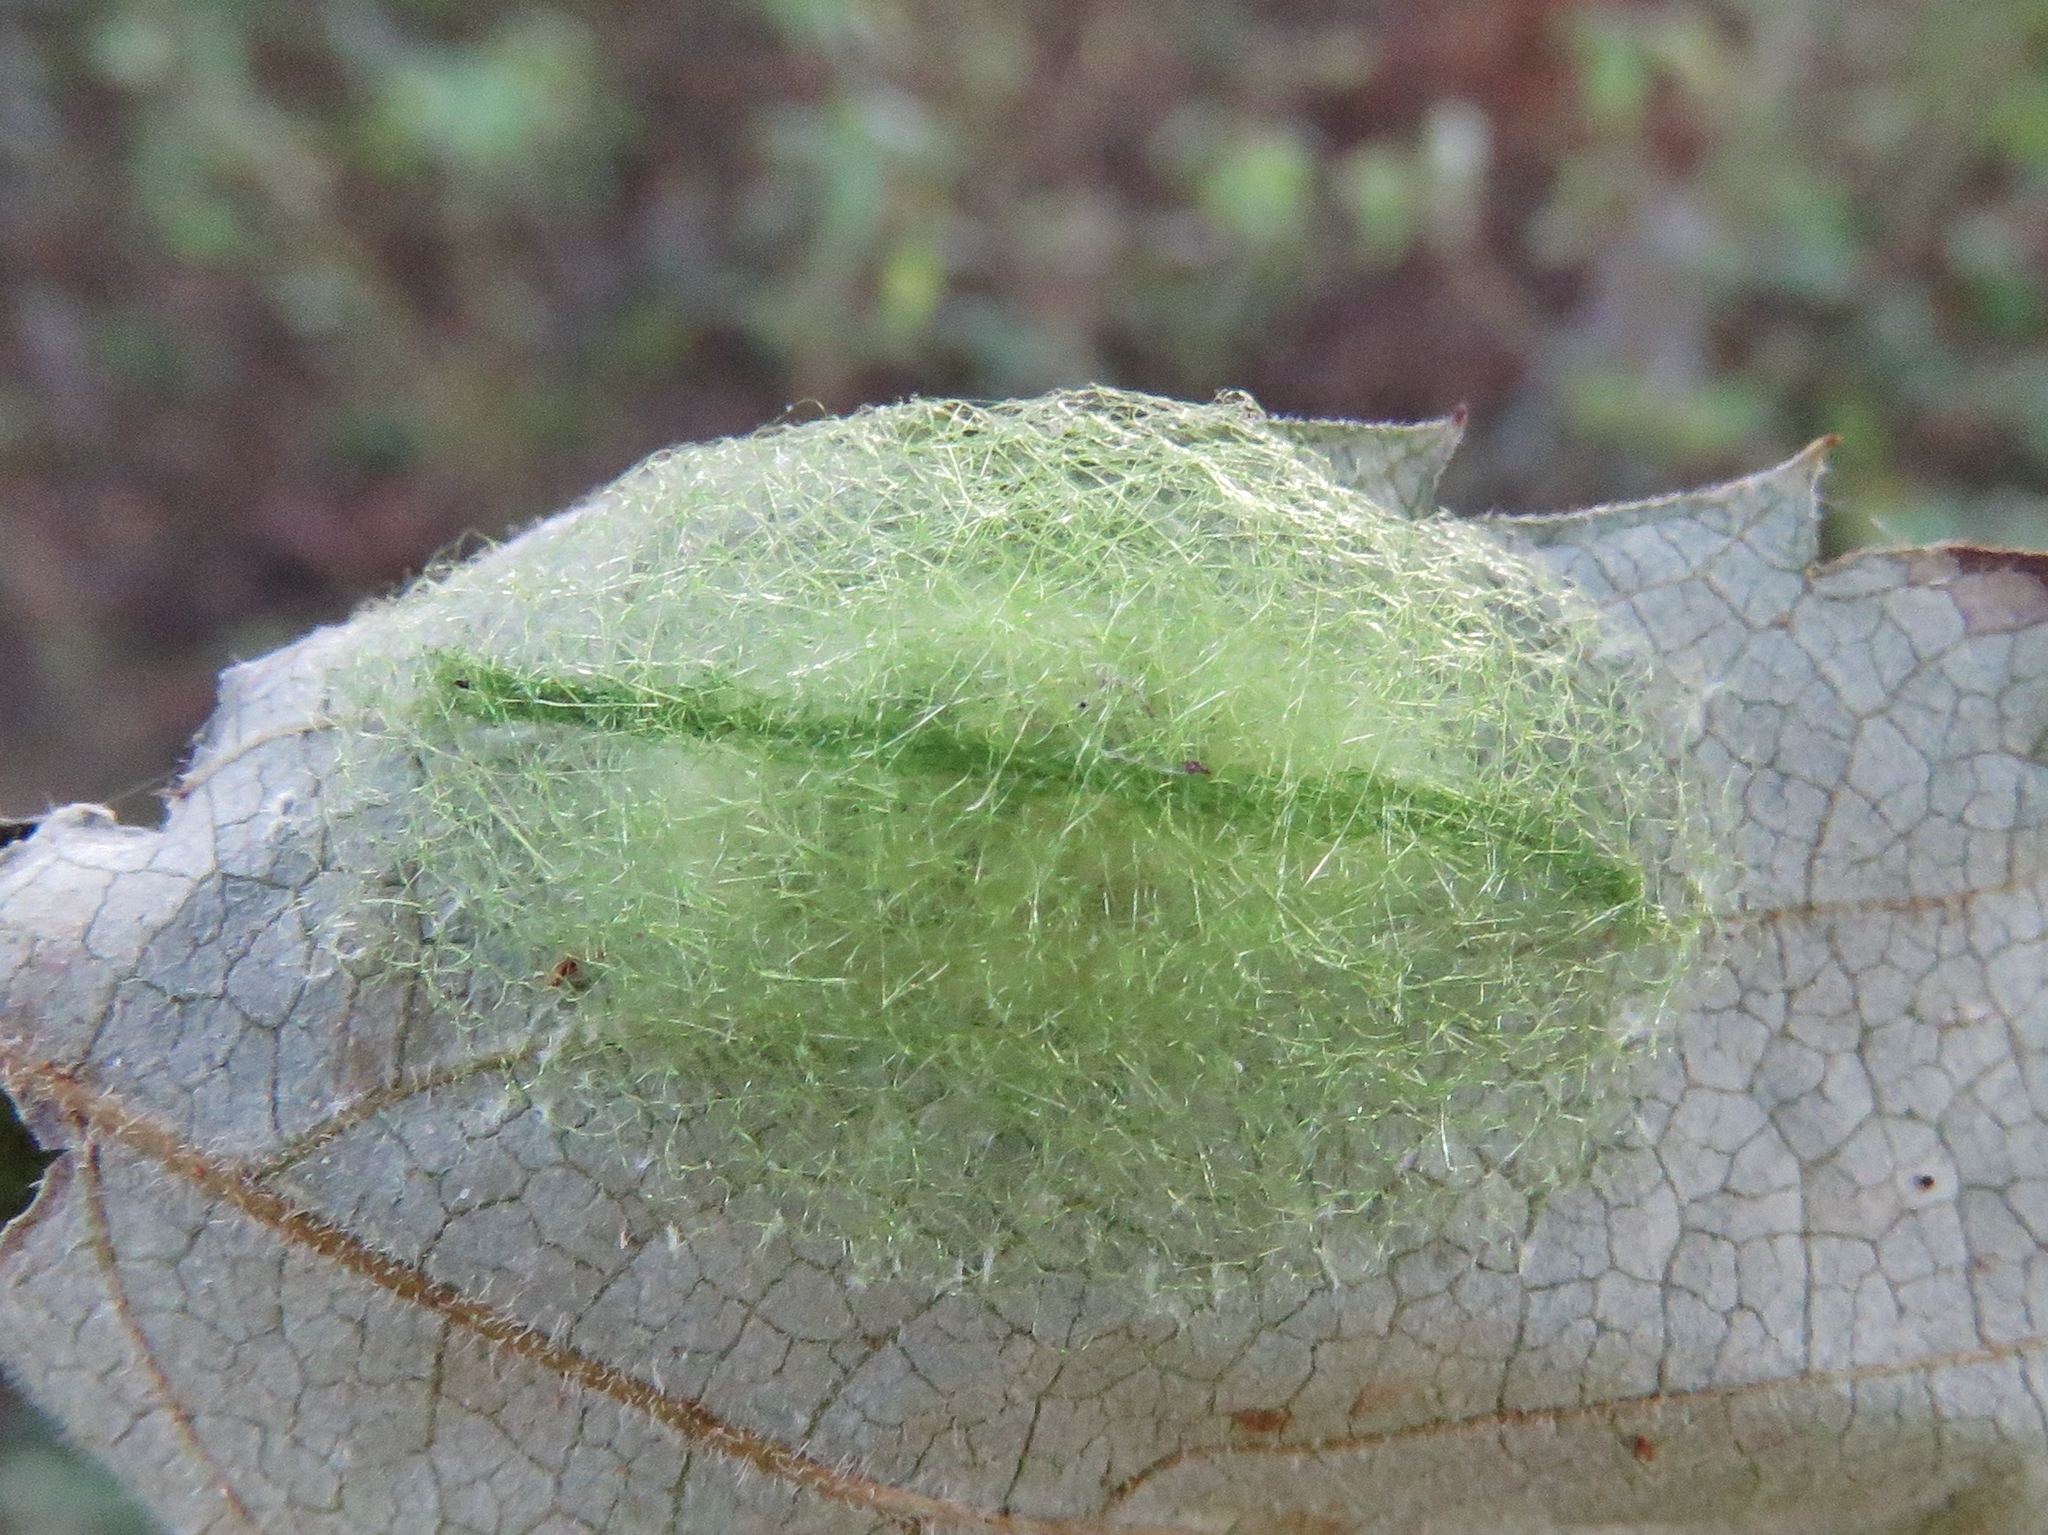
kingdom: Animalia
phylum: Arthropoda
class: Arachnida
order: Araneae
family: Araneidae
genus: Gasteracantha
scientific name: Gasteracantha cancriformis
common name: Orb weavers
